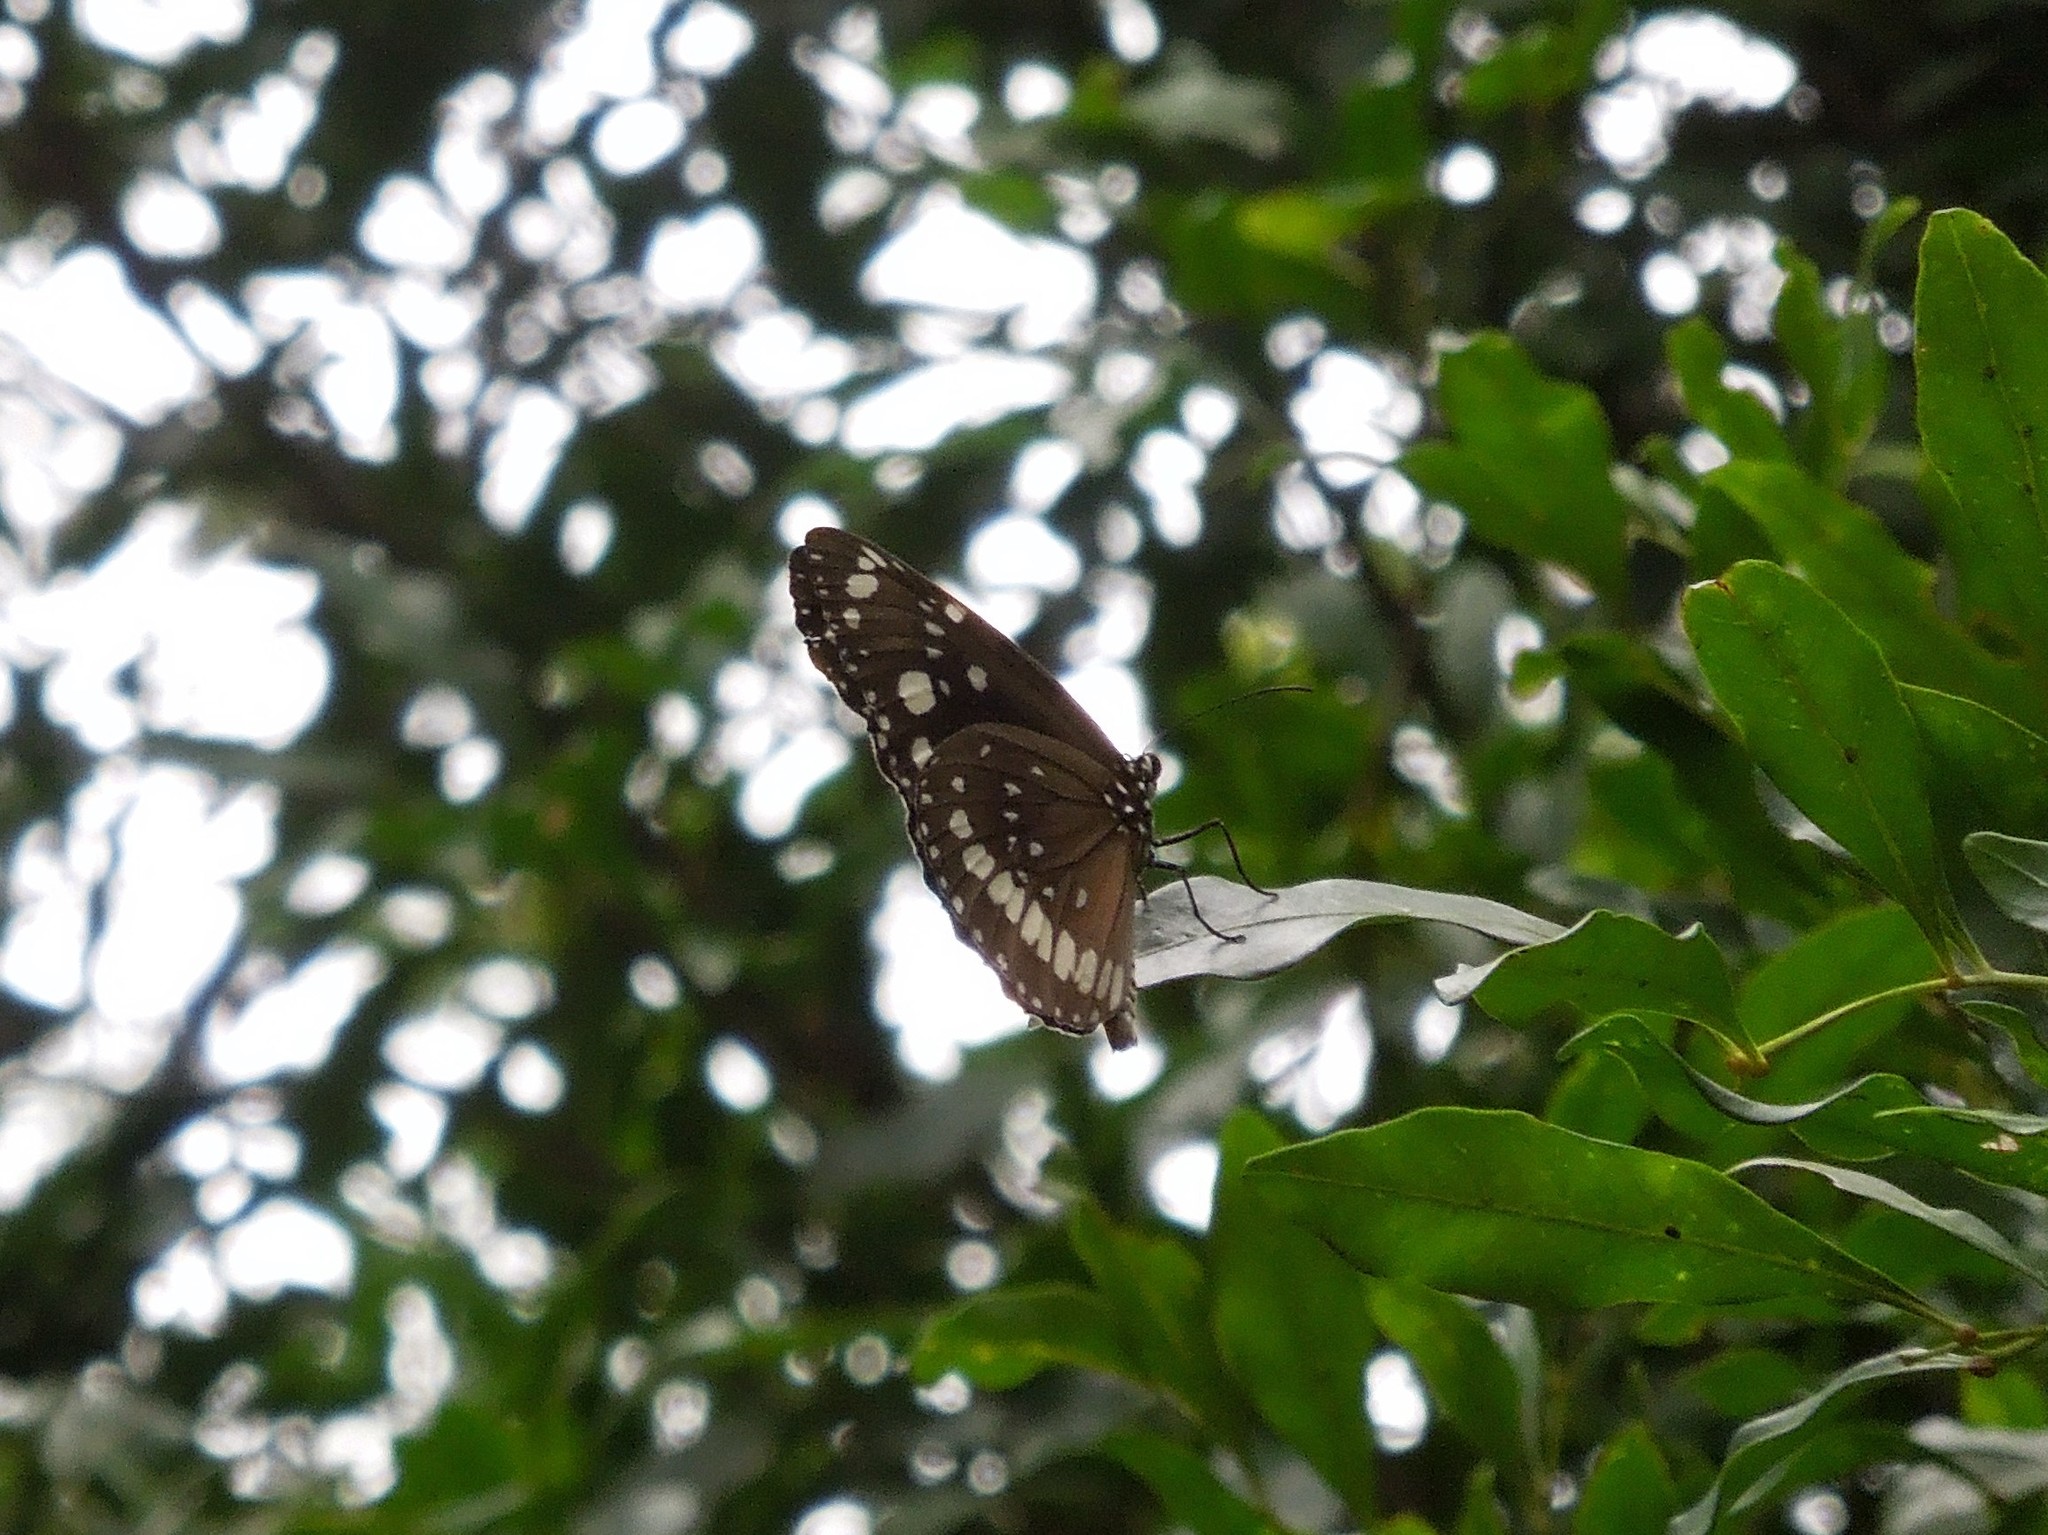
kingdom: Animalia
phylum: Arthropoda
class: Insecta
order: Lepidoptera
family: Nymphalidae
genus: Euploea
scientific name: Euploea core
